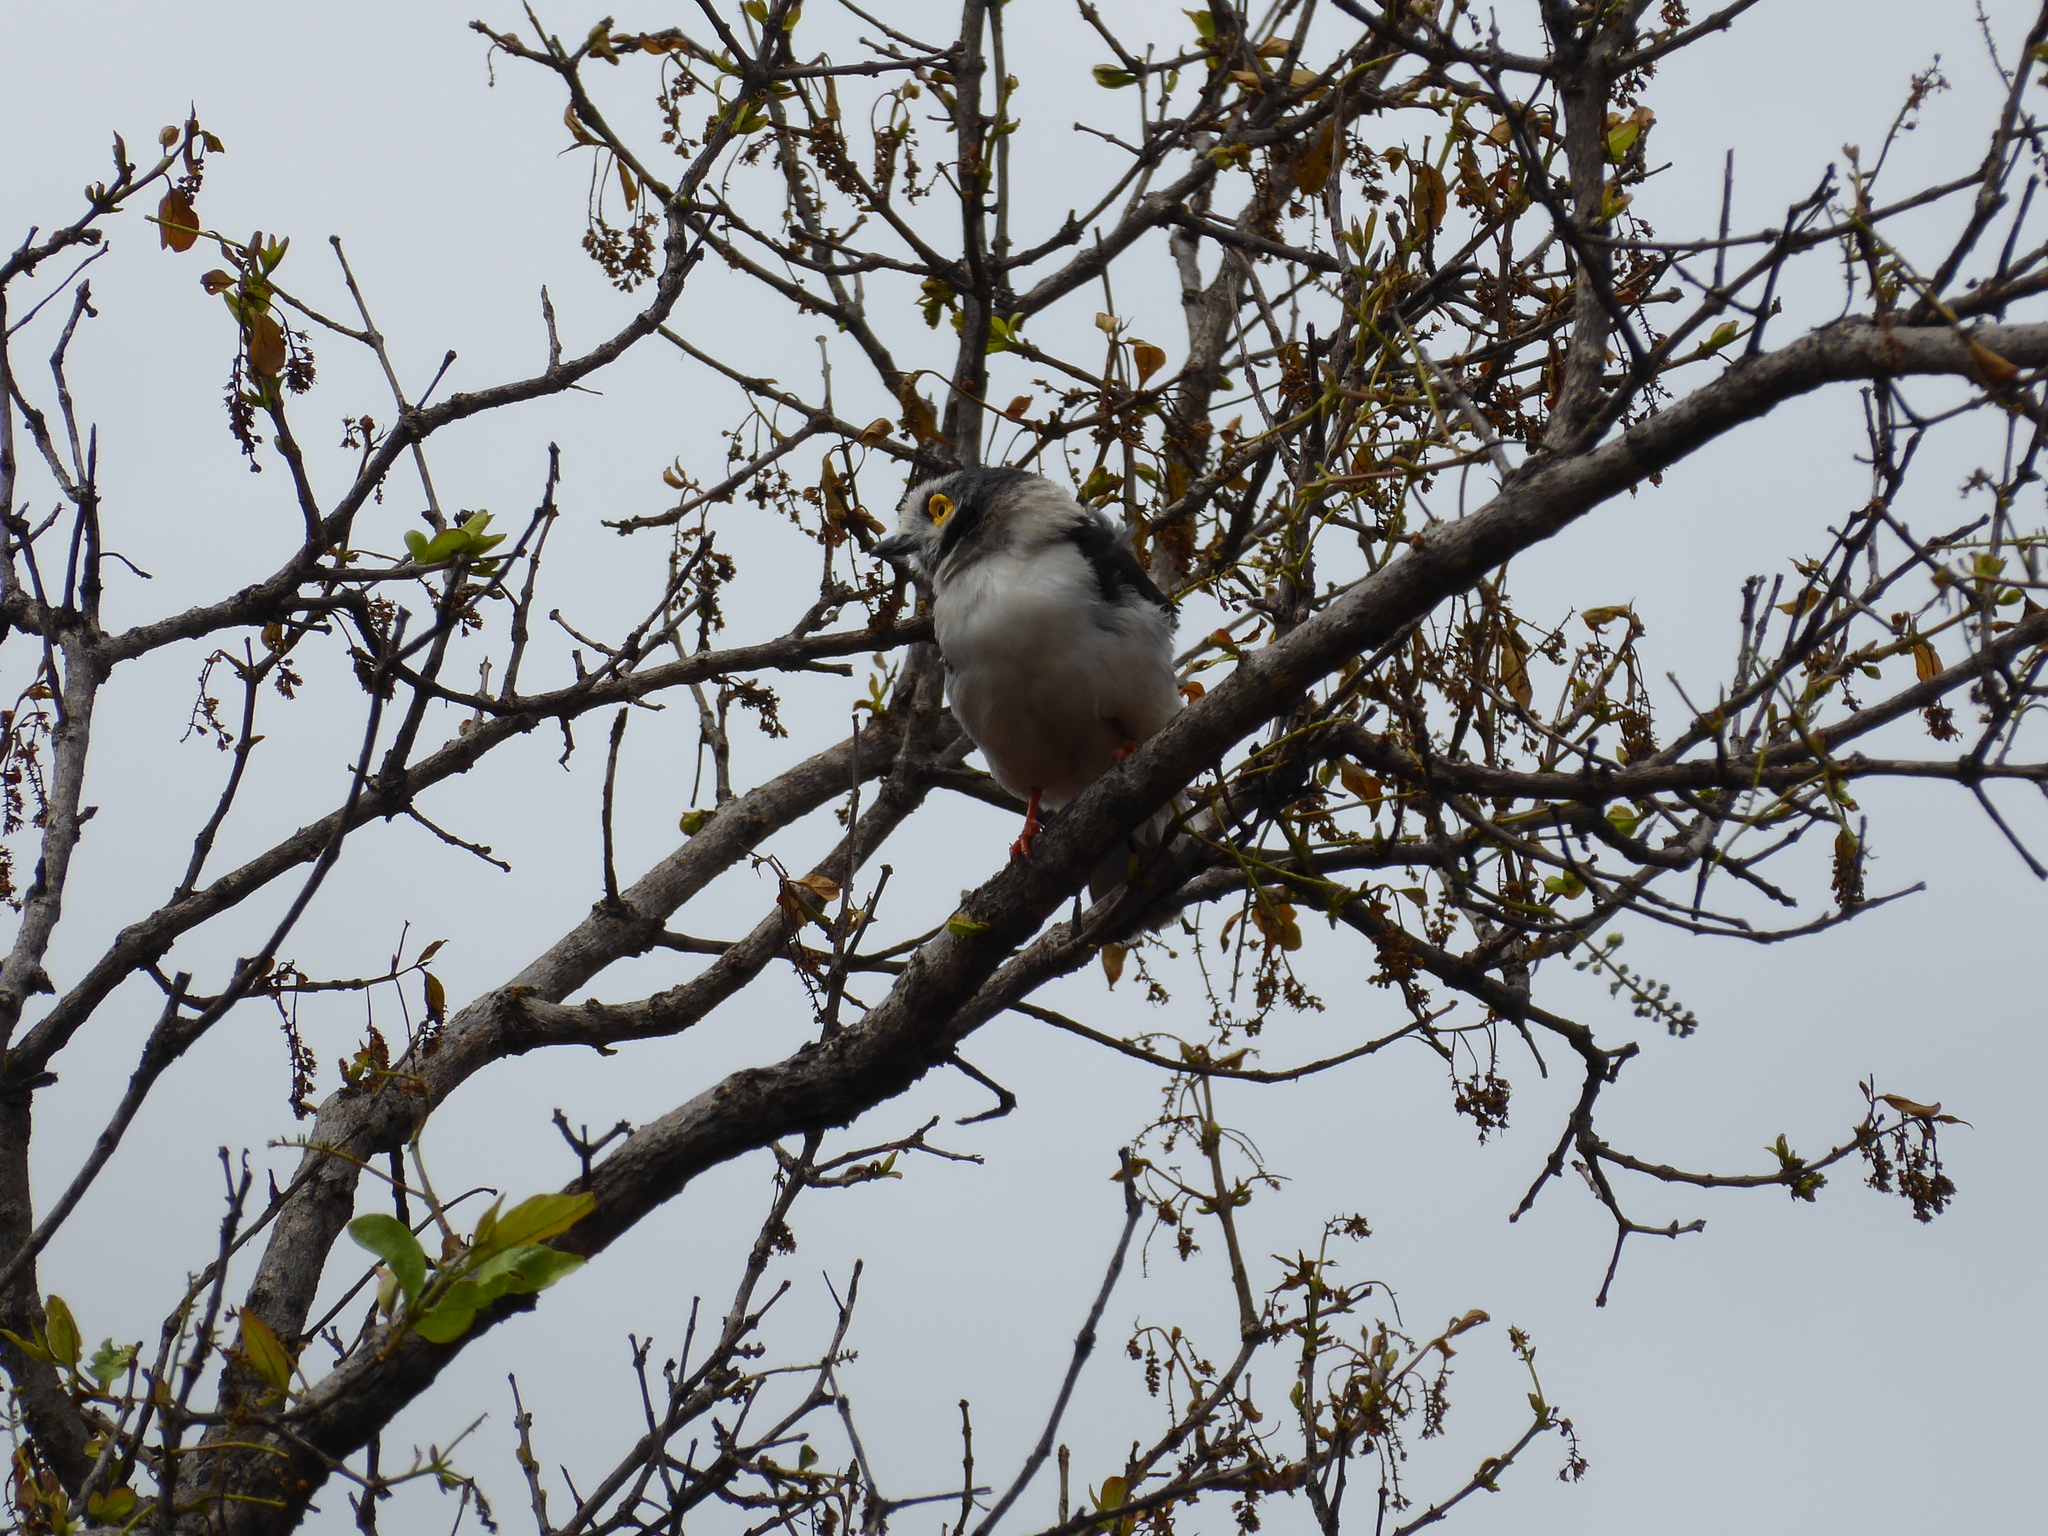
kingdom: Animalia
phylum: Chordata
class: Aves
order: Passeriformes
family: Prionopidae
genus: Prionops
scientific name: Prionops plumatus
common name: White-crested helmetshrike
